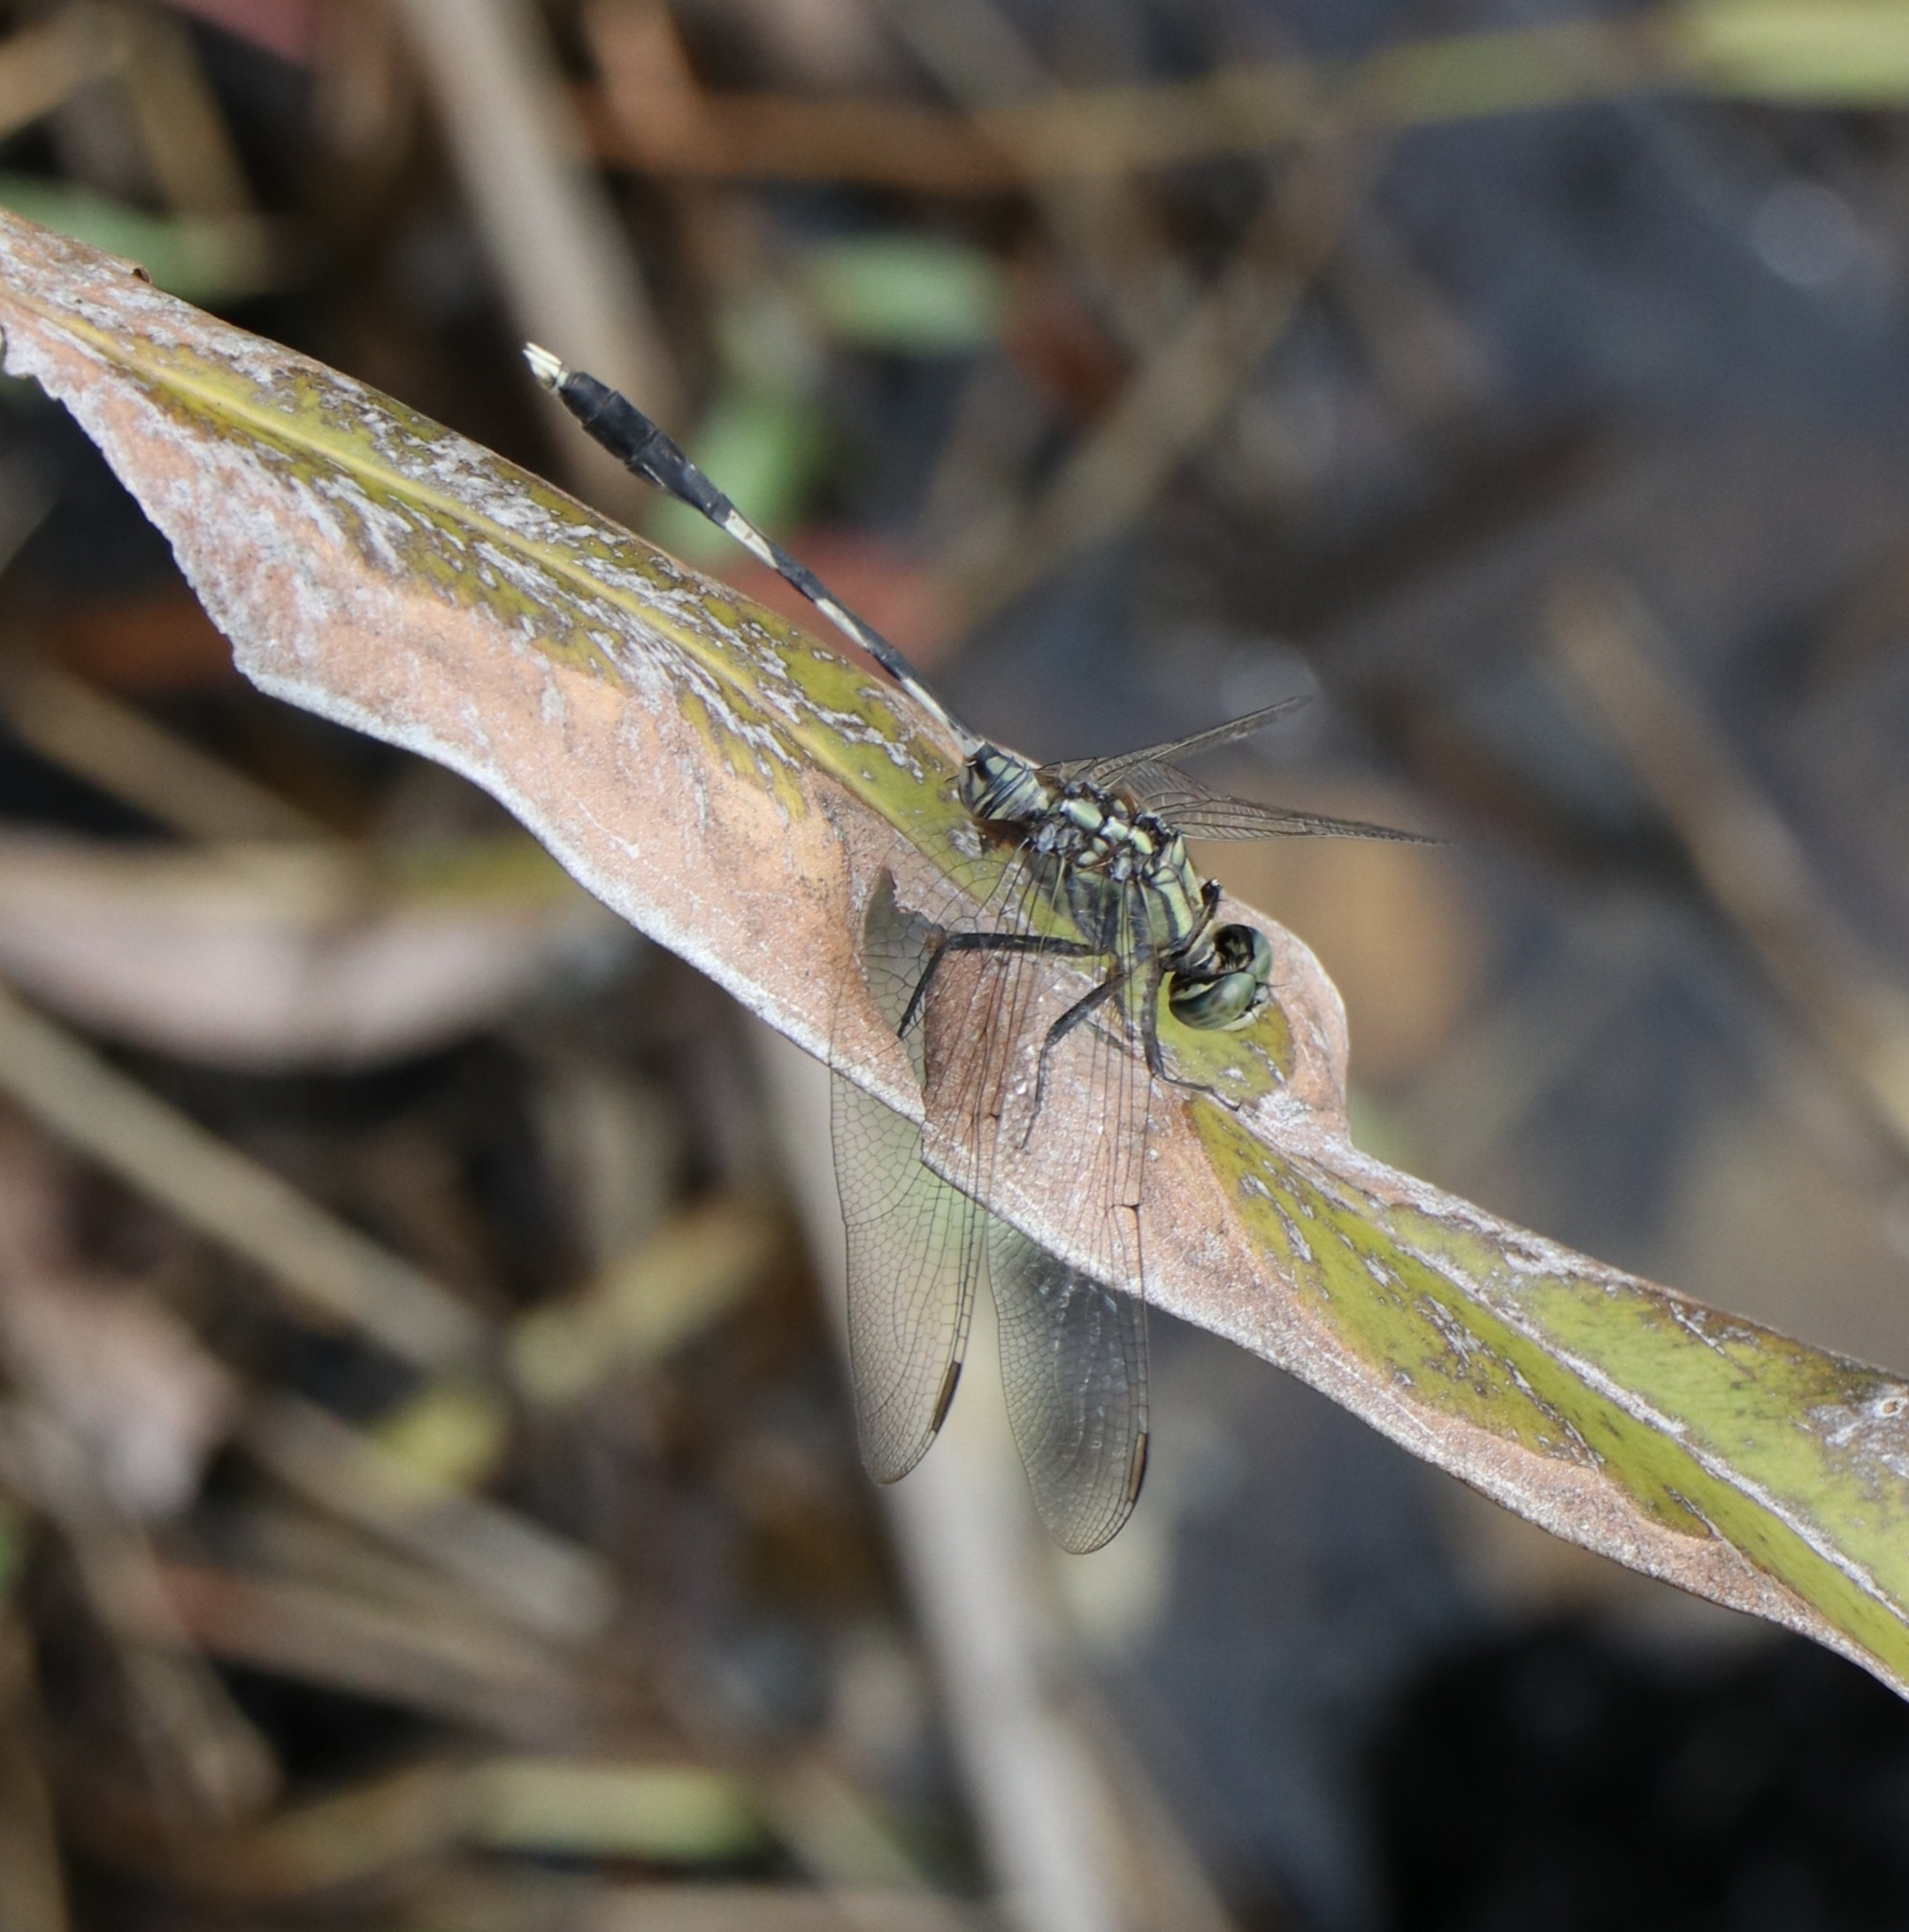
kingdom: Animalia
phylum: Arthropoda
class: Insecta
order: Odonata
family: Libellulidae
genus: Orthetrum
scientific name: Orthetrum sabina
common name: Slender skimmer
